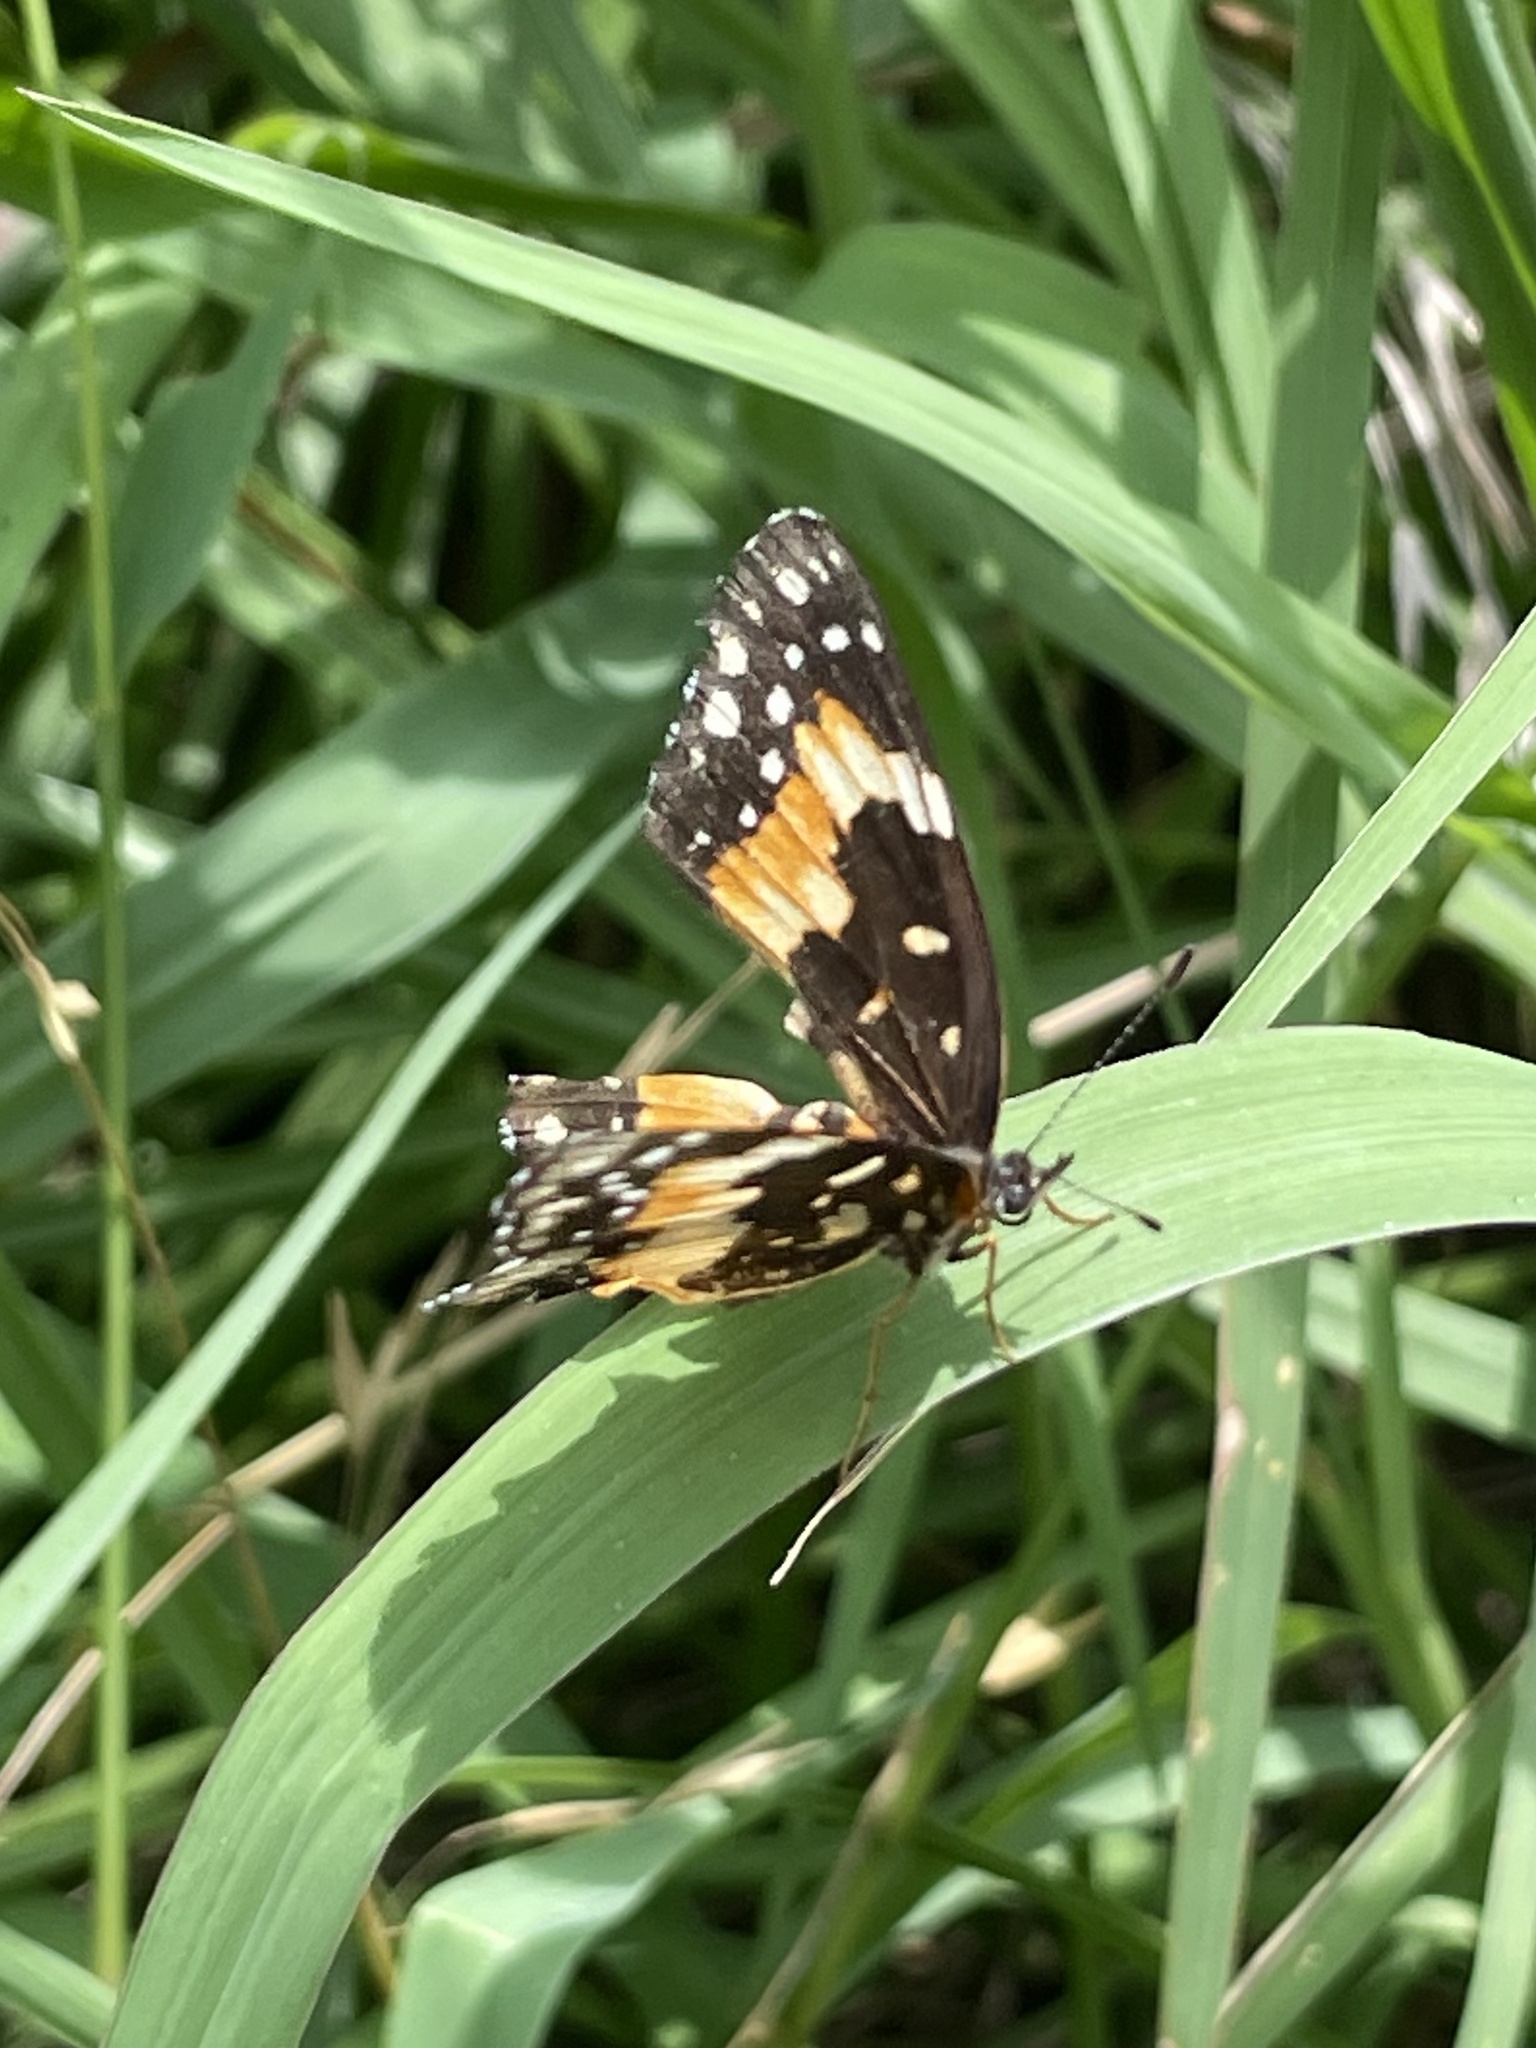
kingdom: Animalia
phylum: Arthropoda
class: Insecta
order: Lepidoptera
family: Nymphalidae
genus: Chlosyne
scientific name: Chlosyne lacinia
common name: Bordered patch
